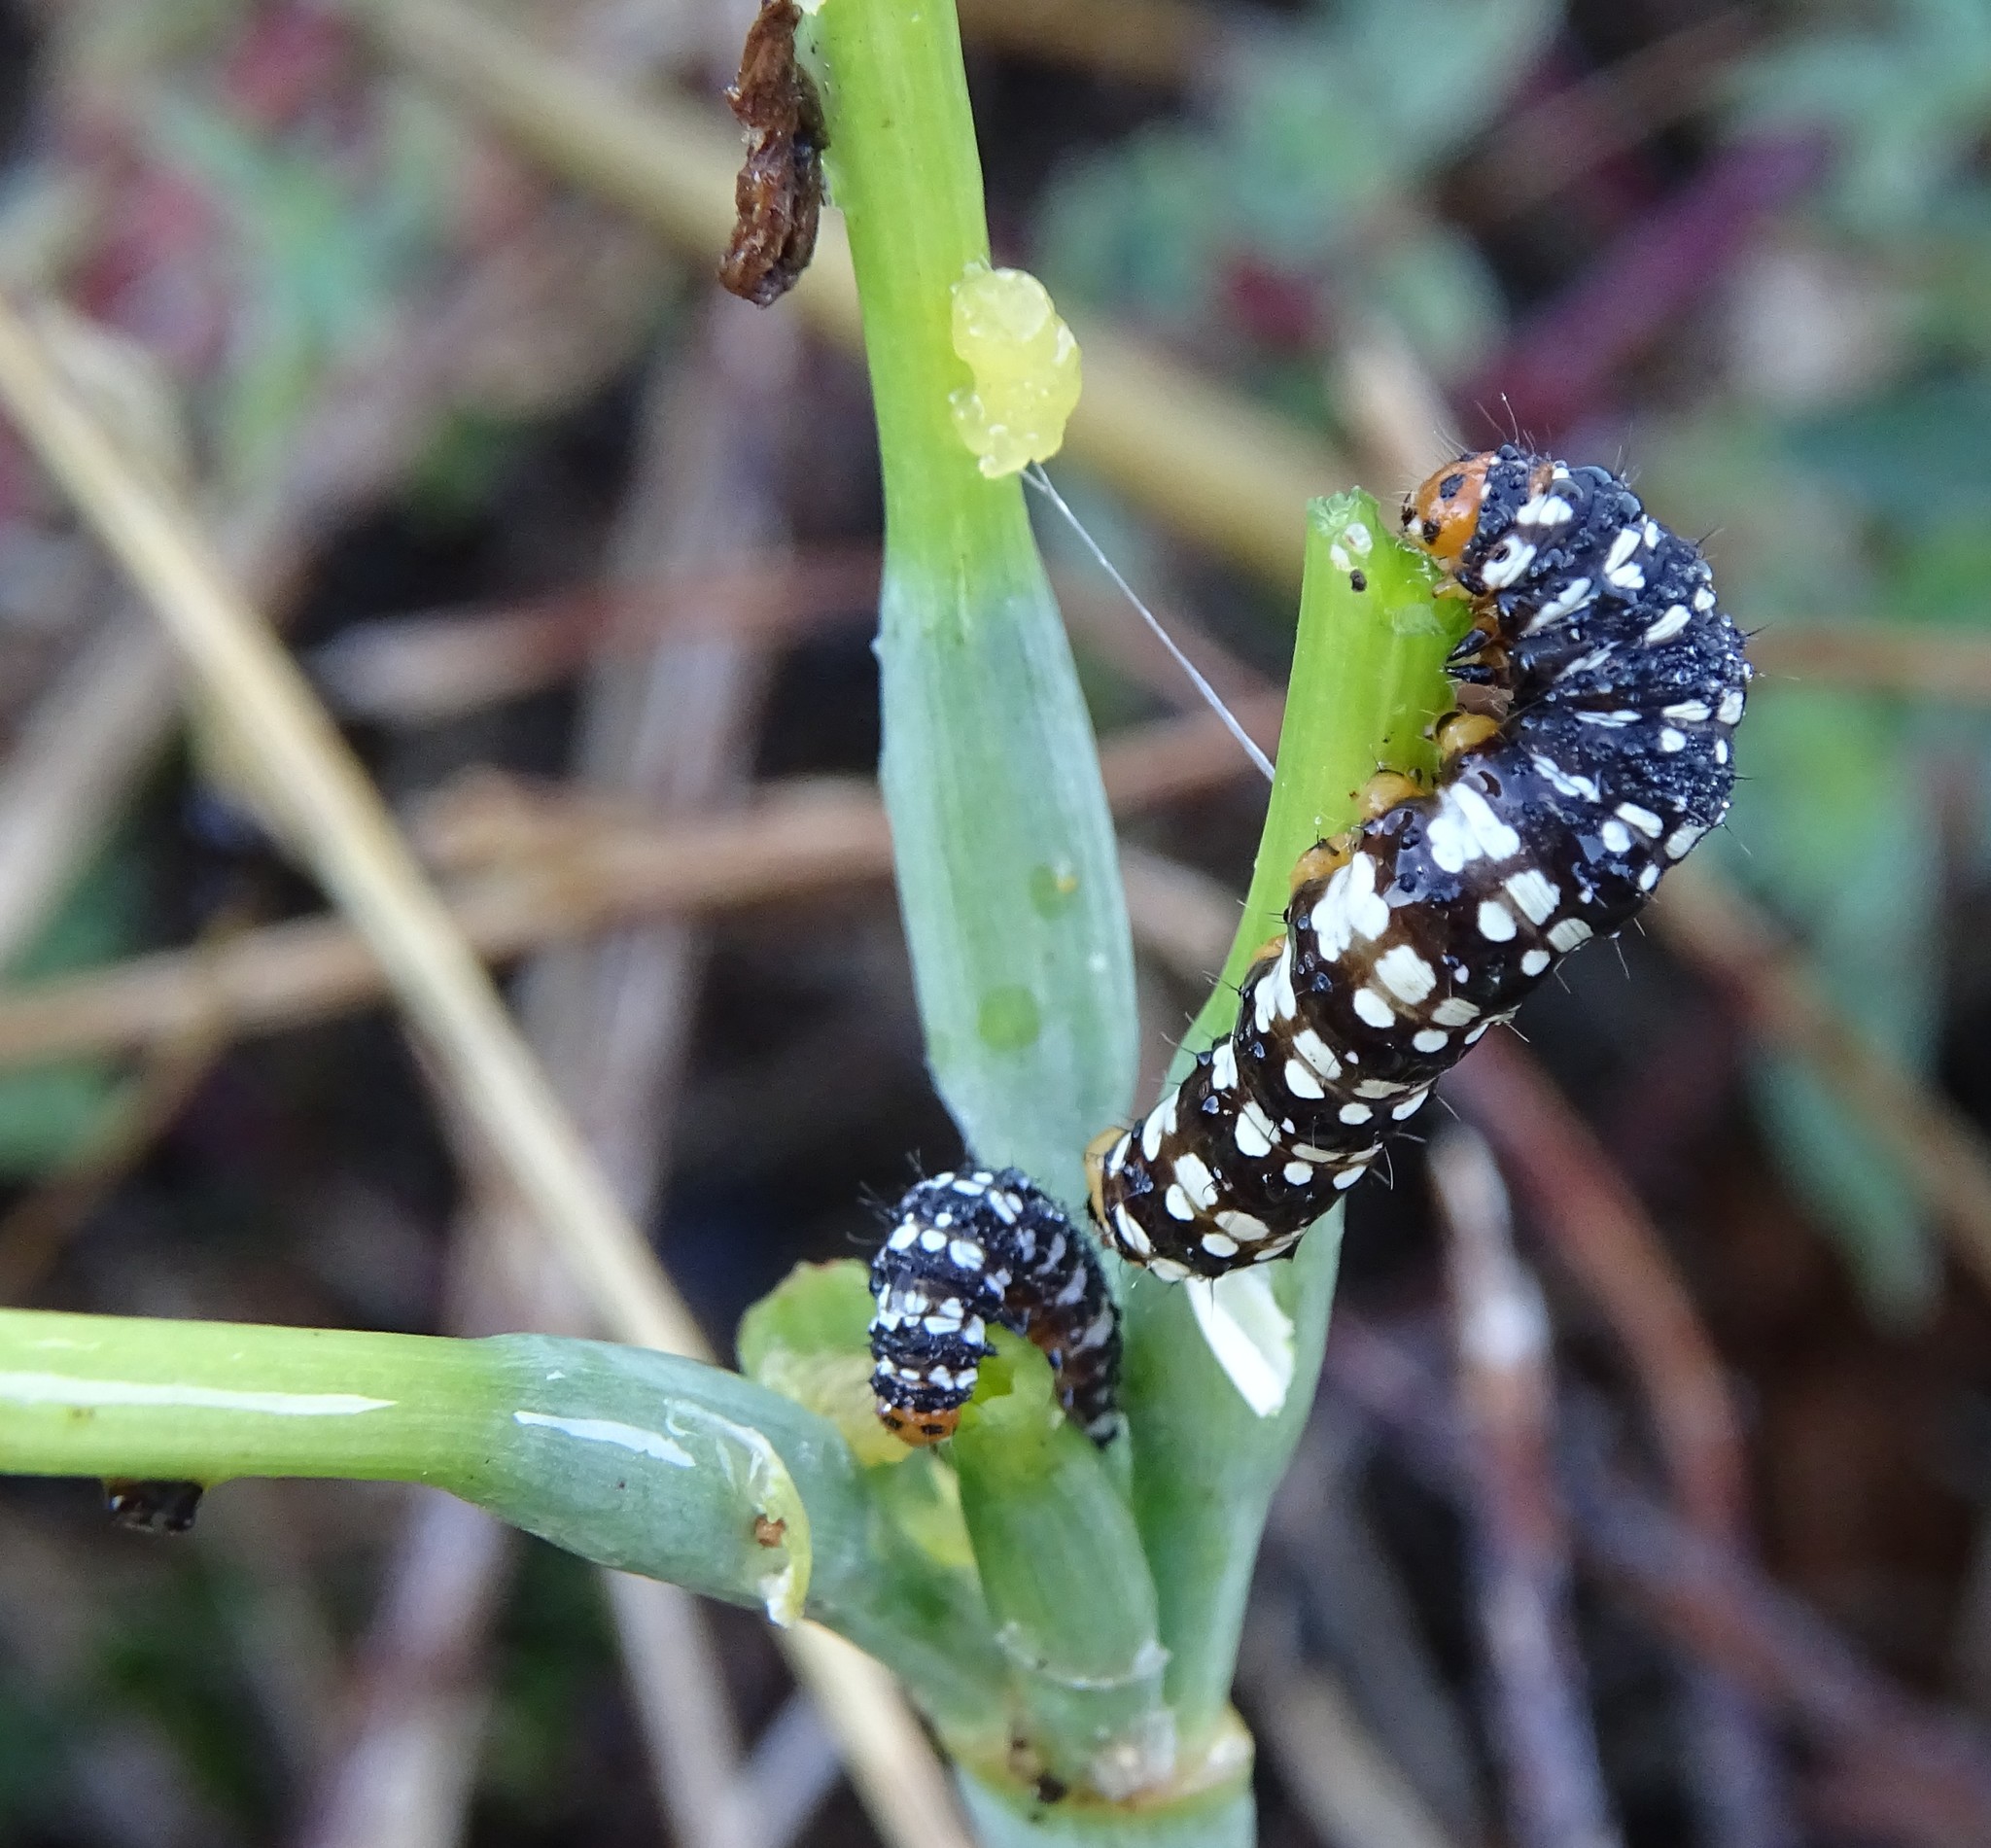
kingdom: Animalia
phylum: Arthropoda
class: Insecta
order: Lepidoptera
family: Noctuidae
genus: Brithys
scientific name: Brithys crini
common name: Kew arches
